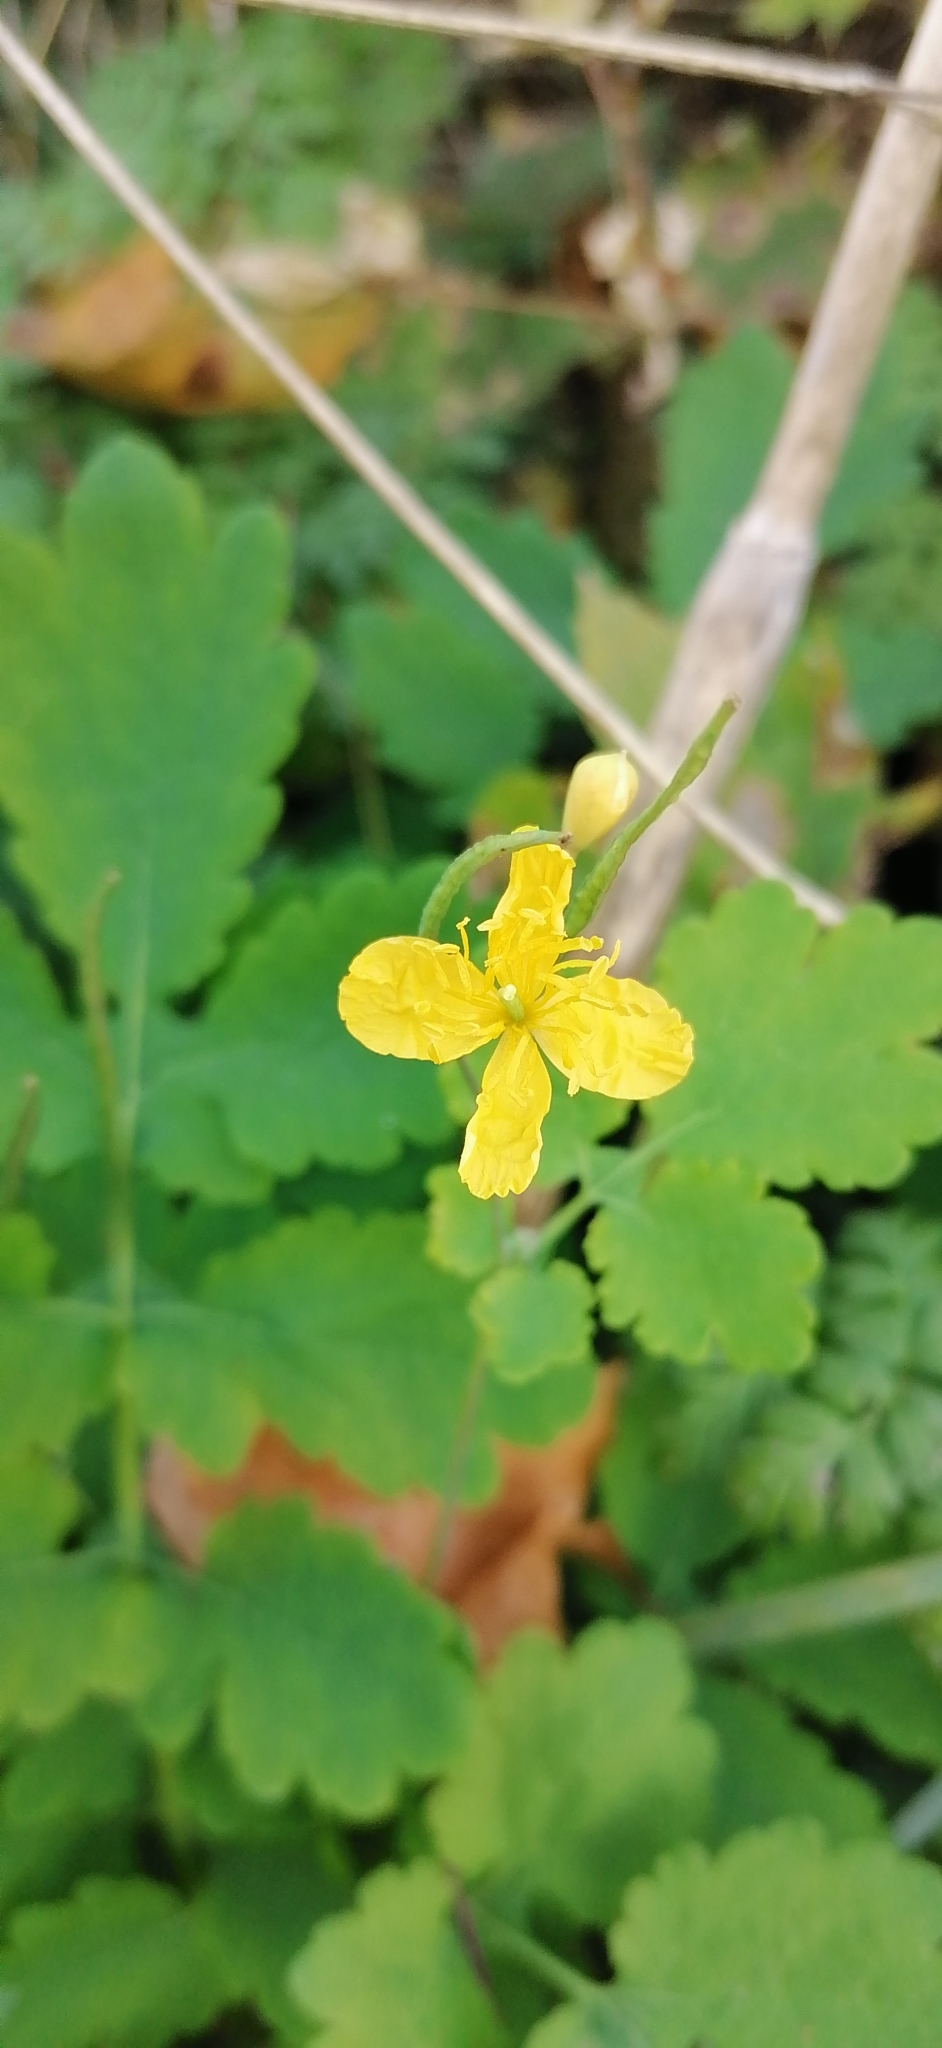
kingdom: Plantae
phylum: Tracheophyta
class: Magnoliopsida
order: Ranunculales
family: Papaveraceae
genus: Chelidonium
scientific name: Chelidonium majus
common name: Greater celandine
